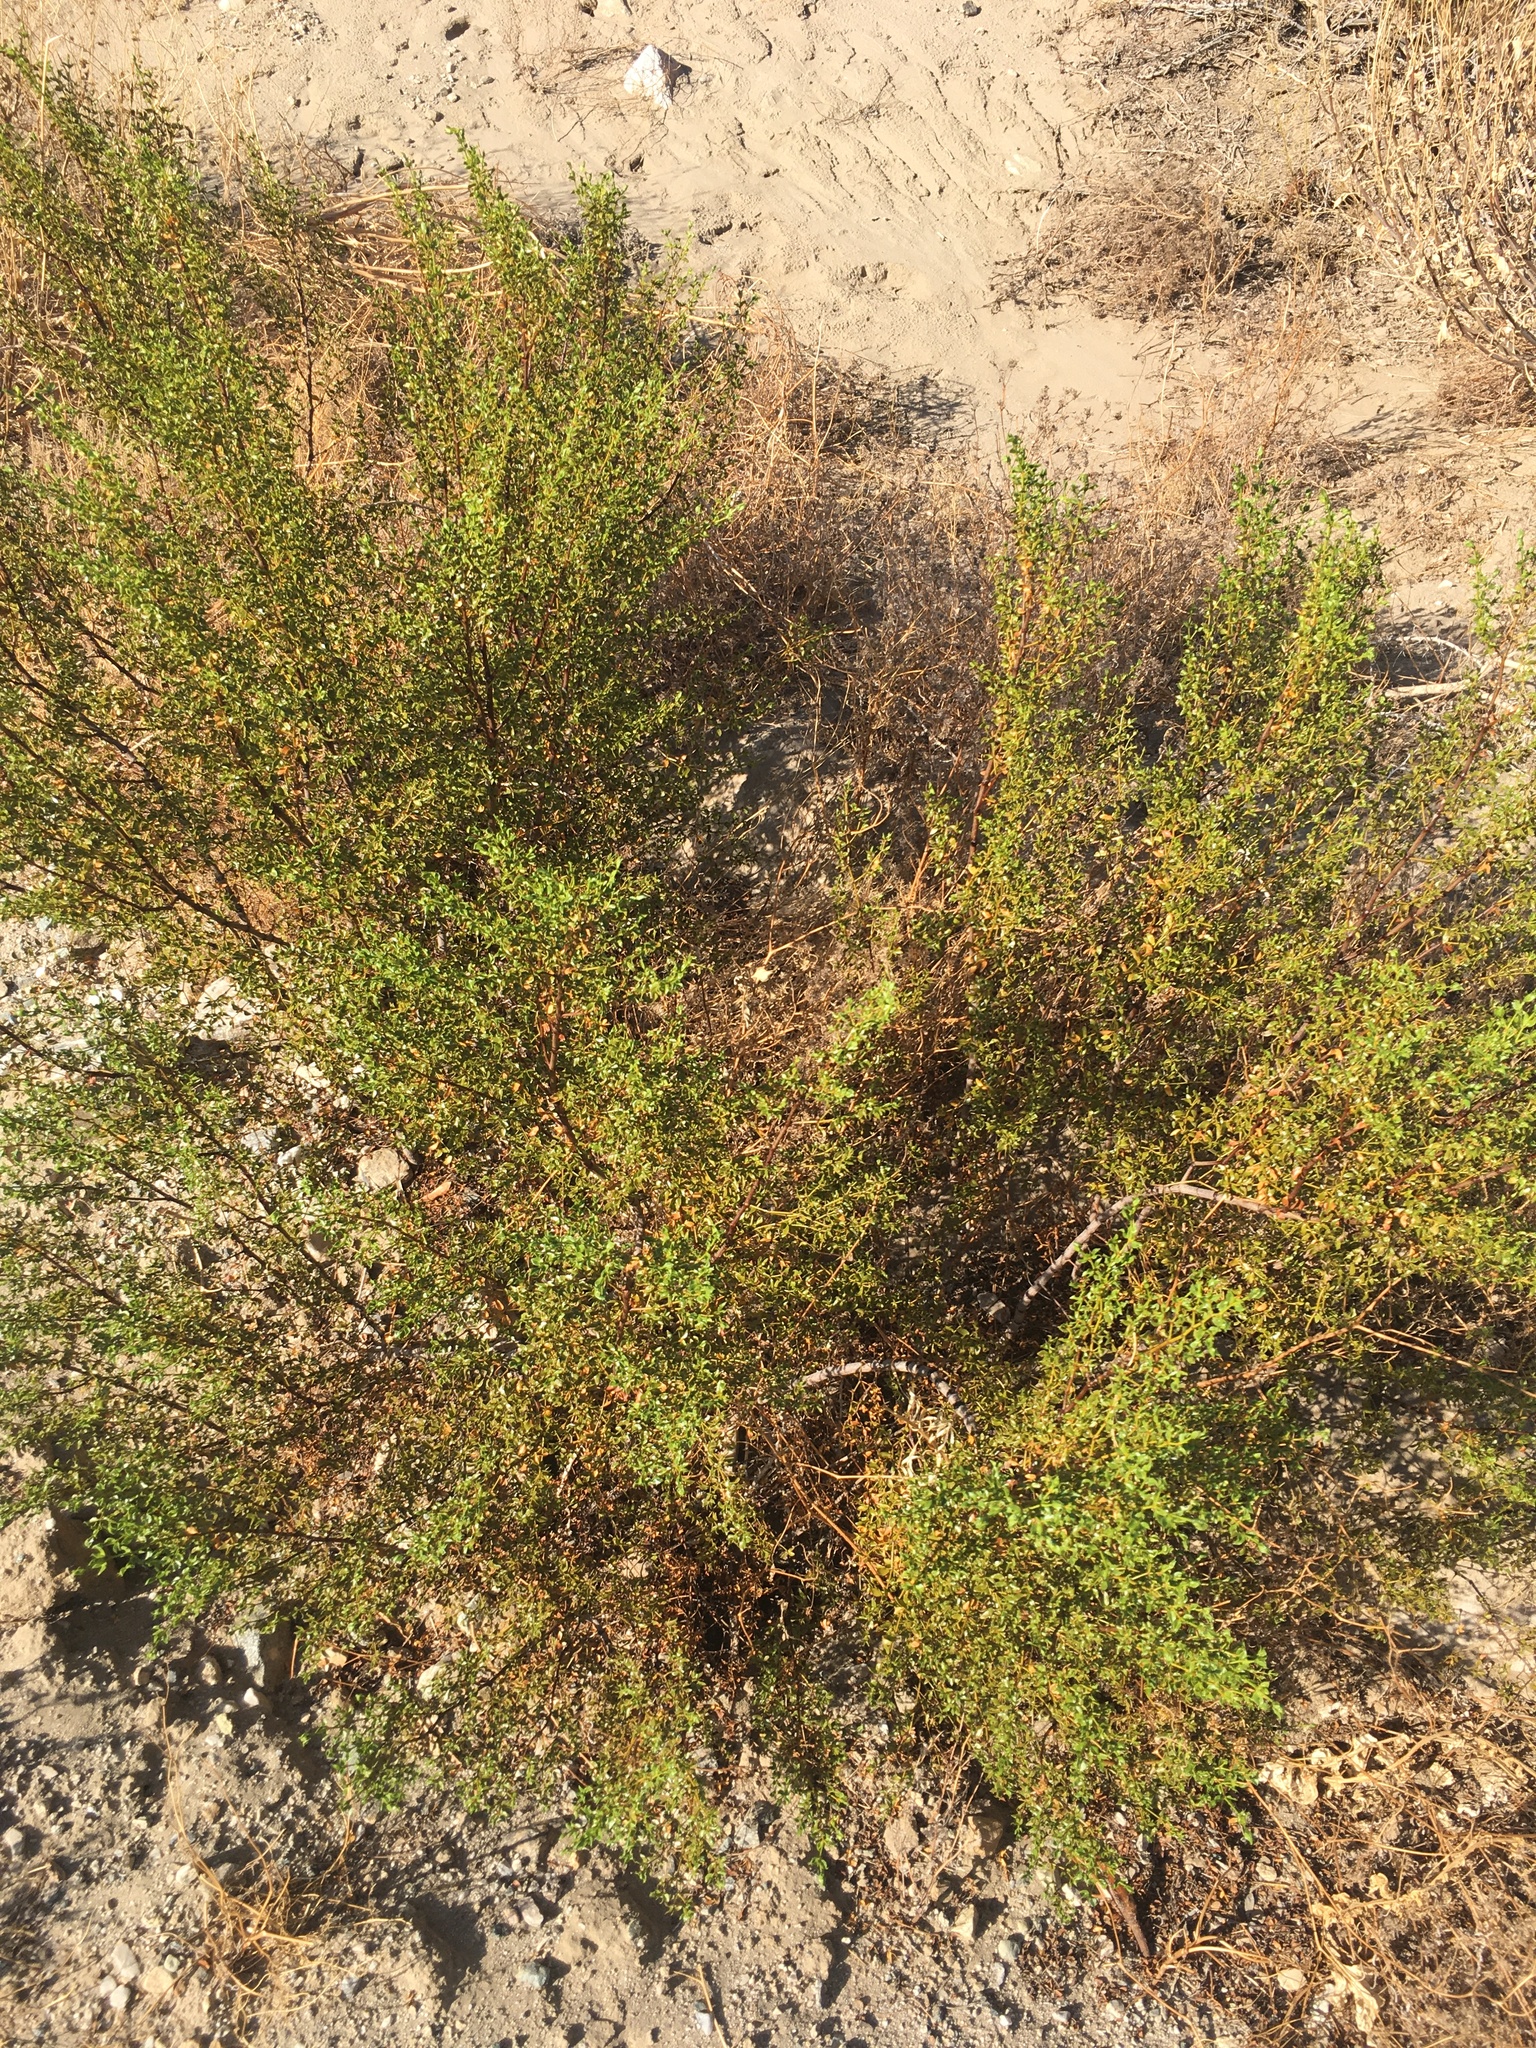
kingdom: Plantae
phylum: Tracheophyta
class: Magnoliopsida
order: Zygophyllales
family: Zygophyllaceae
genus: Larrea
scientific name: Larrea tridentata
